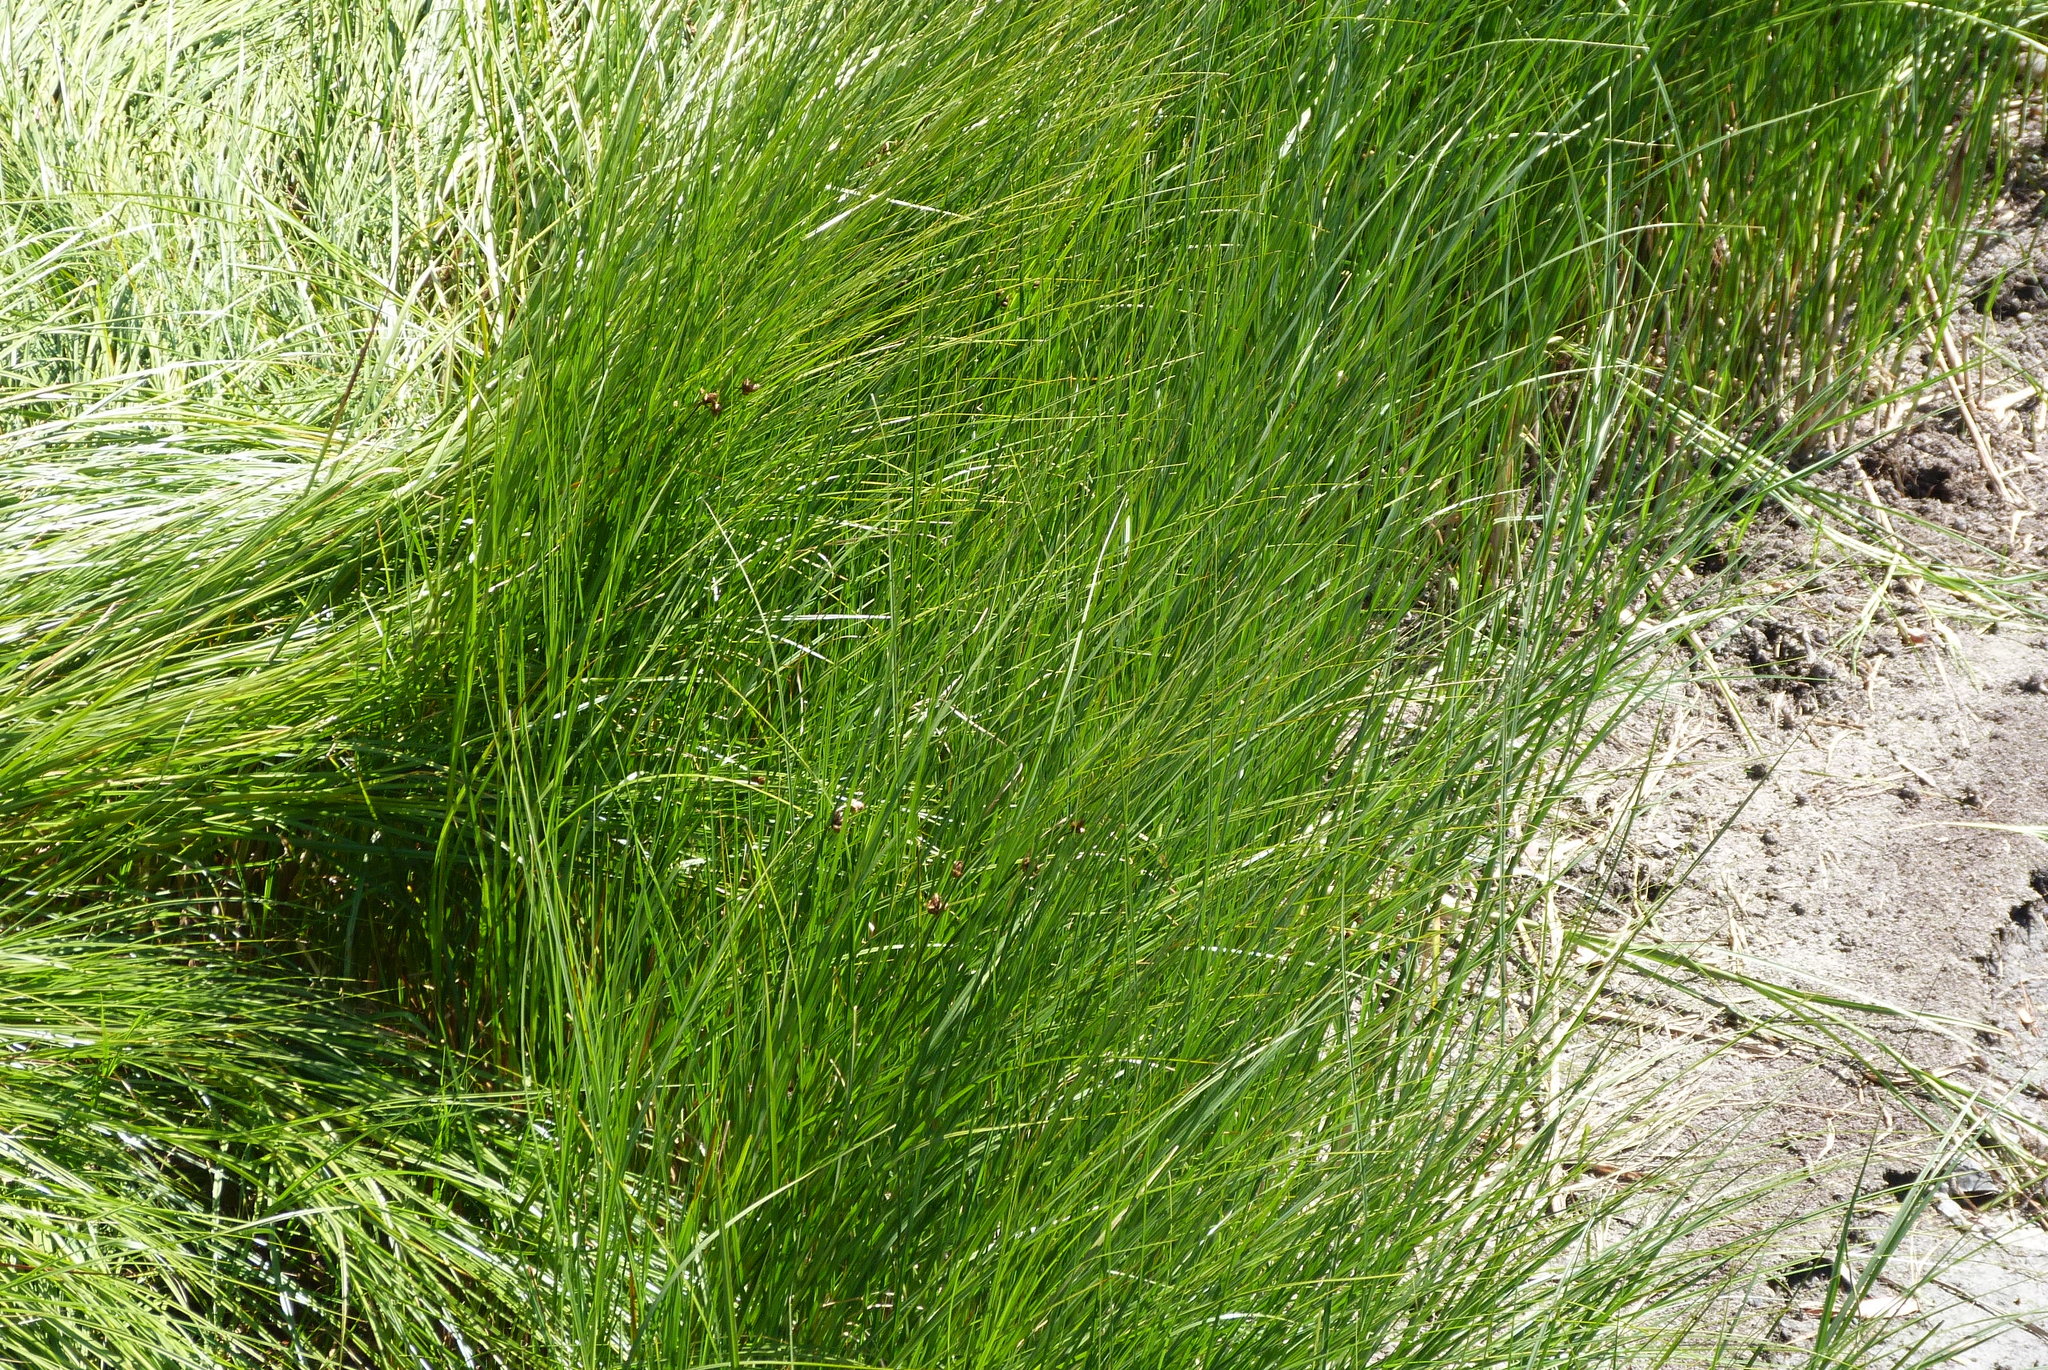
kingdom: Plantae
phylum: Tracheophyta
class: Liliopsida
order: Poales
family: Cyperaceae
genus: Bolboschoenus
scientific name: Bolboschoenus caldwellii
